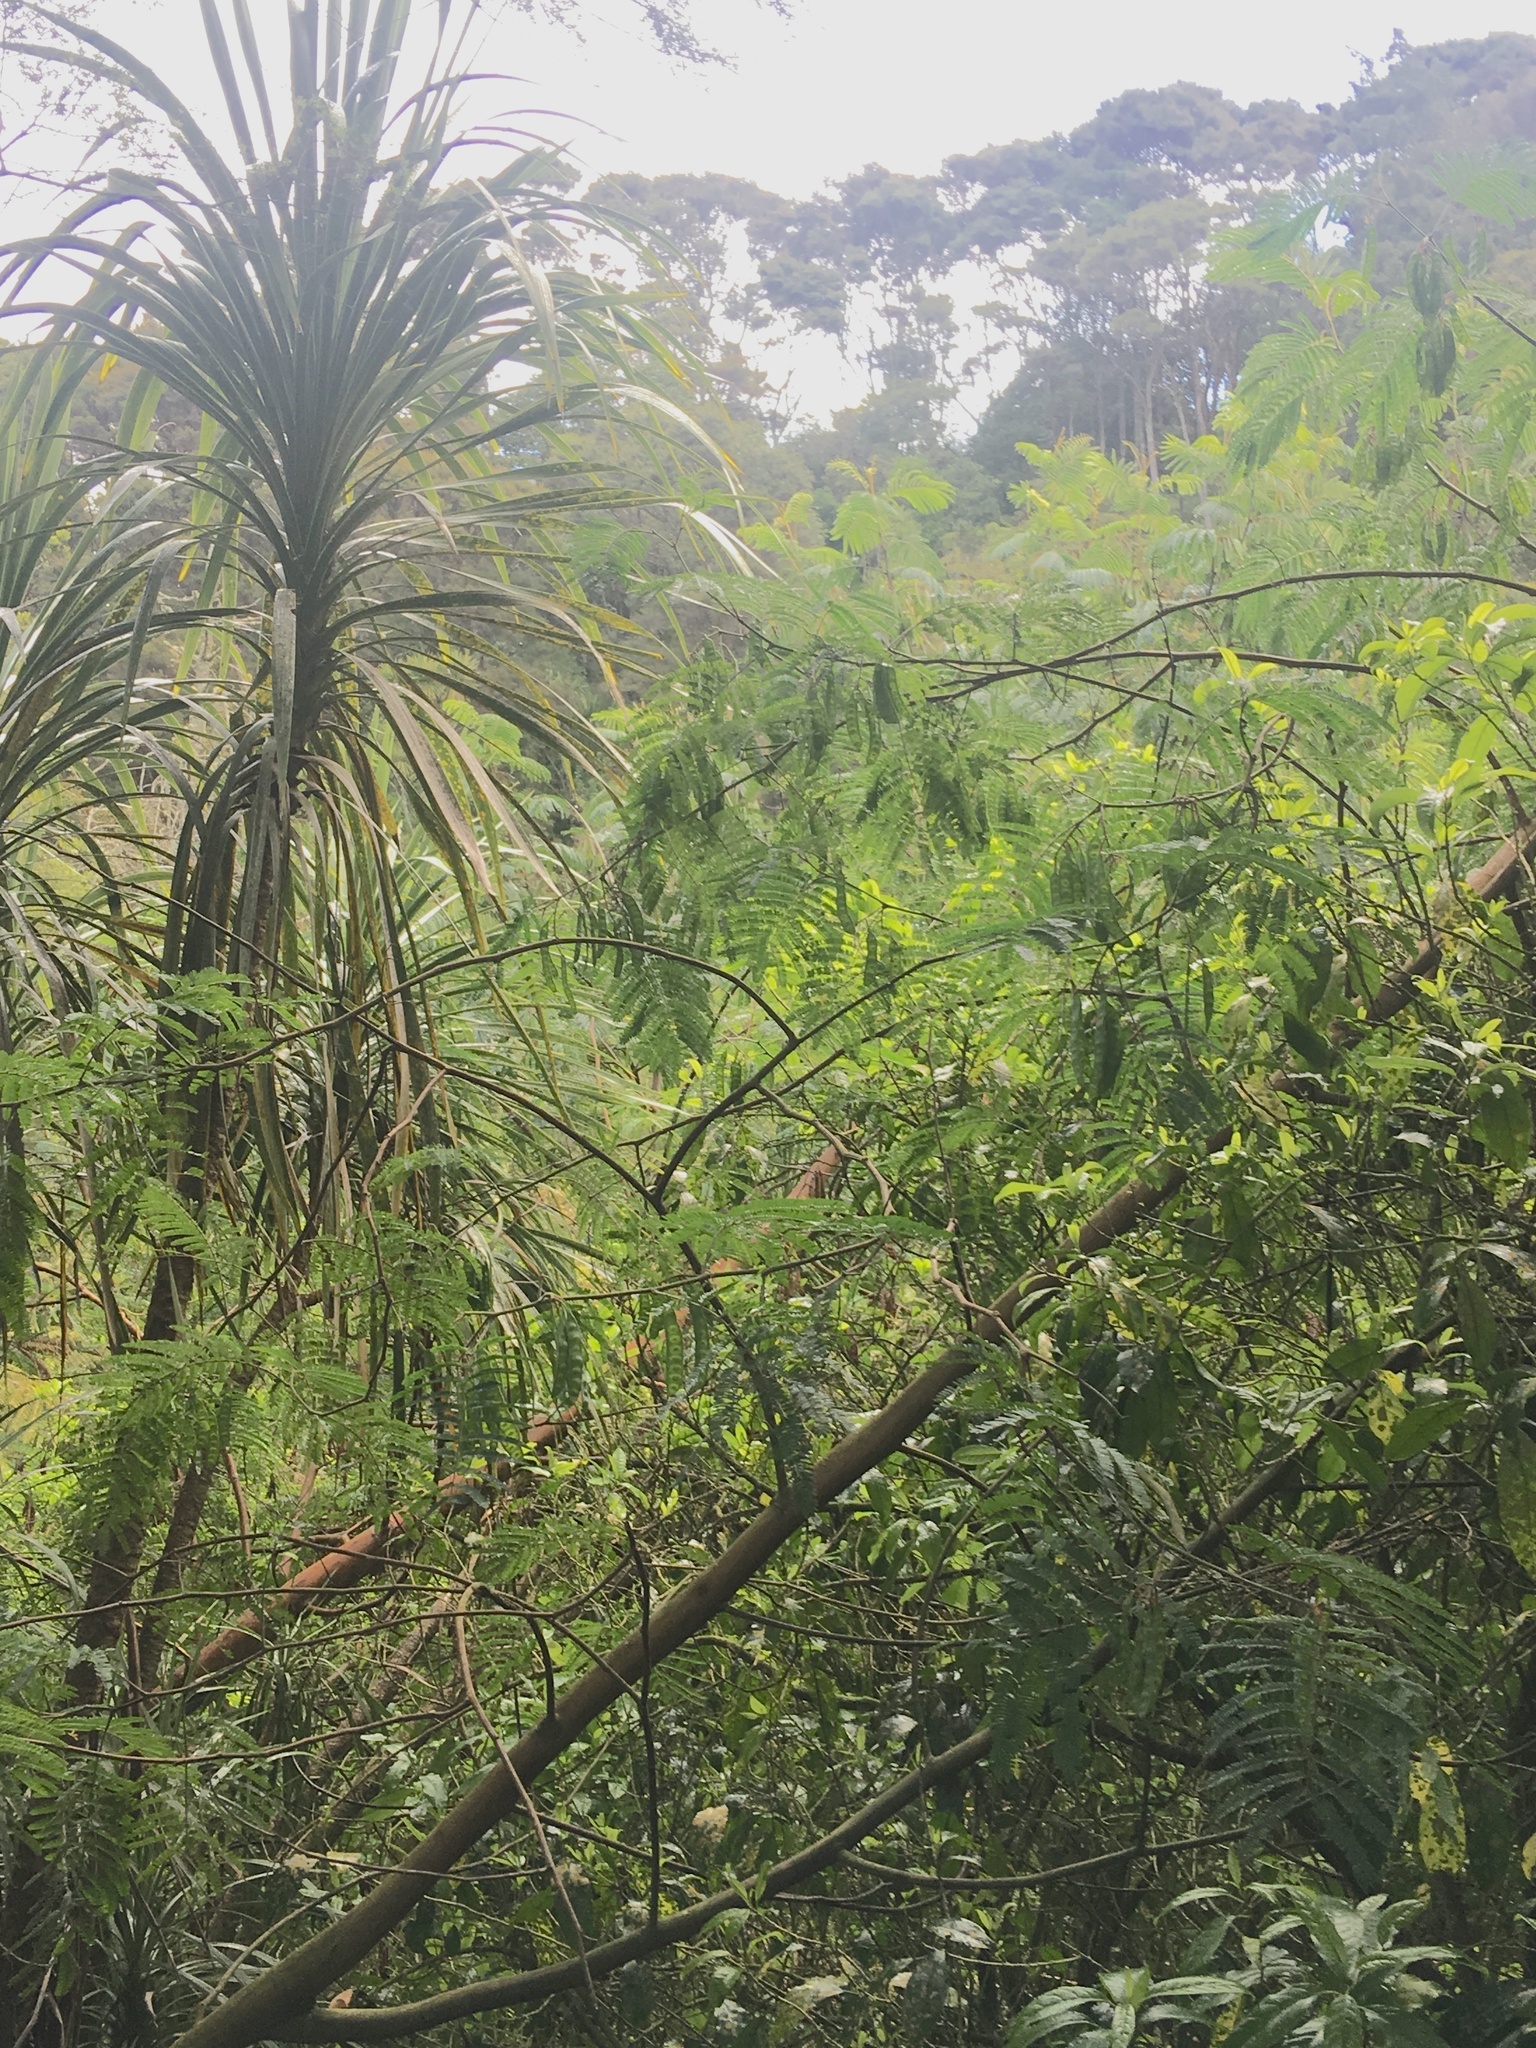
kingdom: Plantae
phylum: Tracheophyta
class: Magnoliopsida
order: Fabales
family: Fabaceae
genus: Paraserianthes
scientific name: Paraserianthes lophantha
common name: Plume albizia
